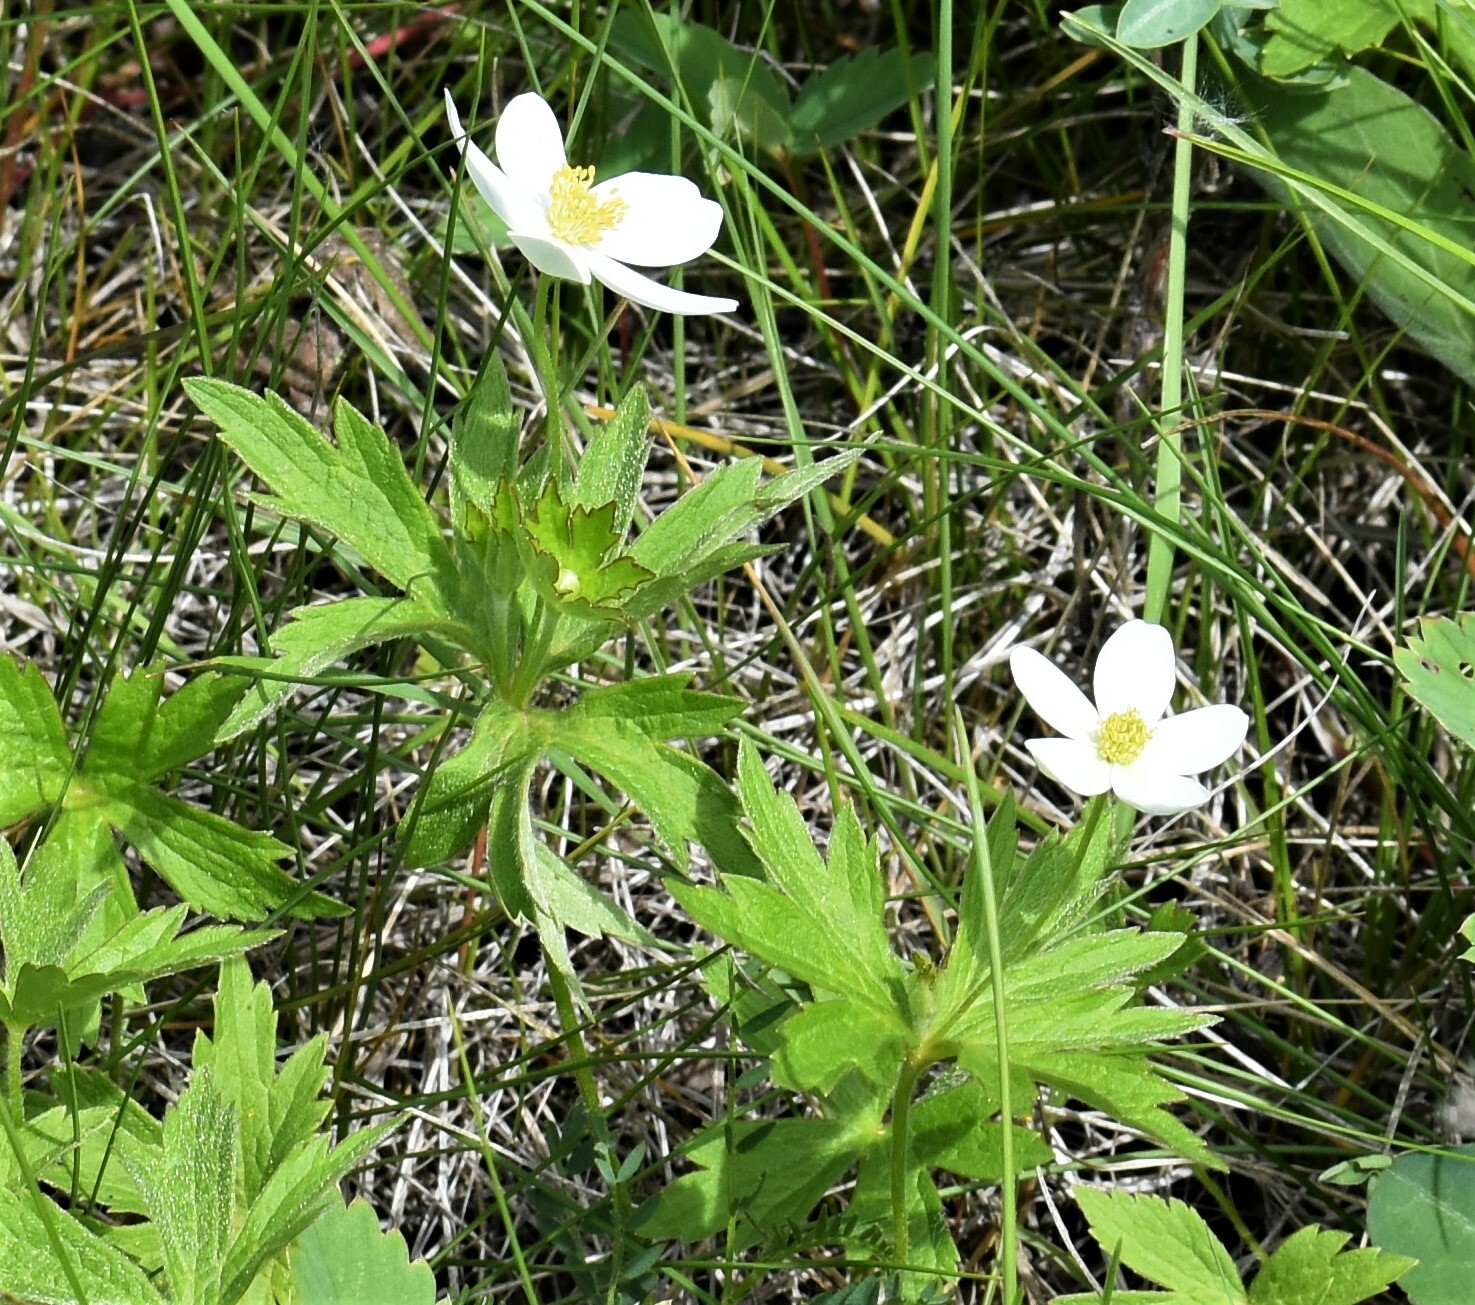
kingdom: Plantae
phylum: Tracheophyta
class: Magnoliopsida
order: Ranunculales
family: Ranunculaceae
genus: Anemonastrum
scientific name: Anemonastrum canadense
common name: Canada anemone
